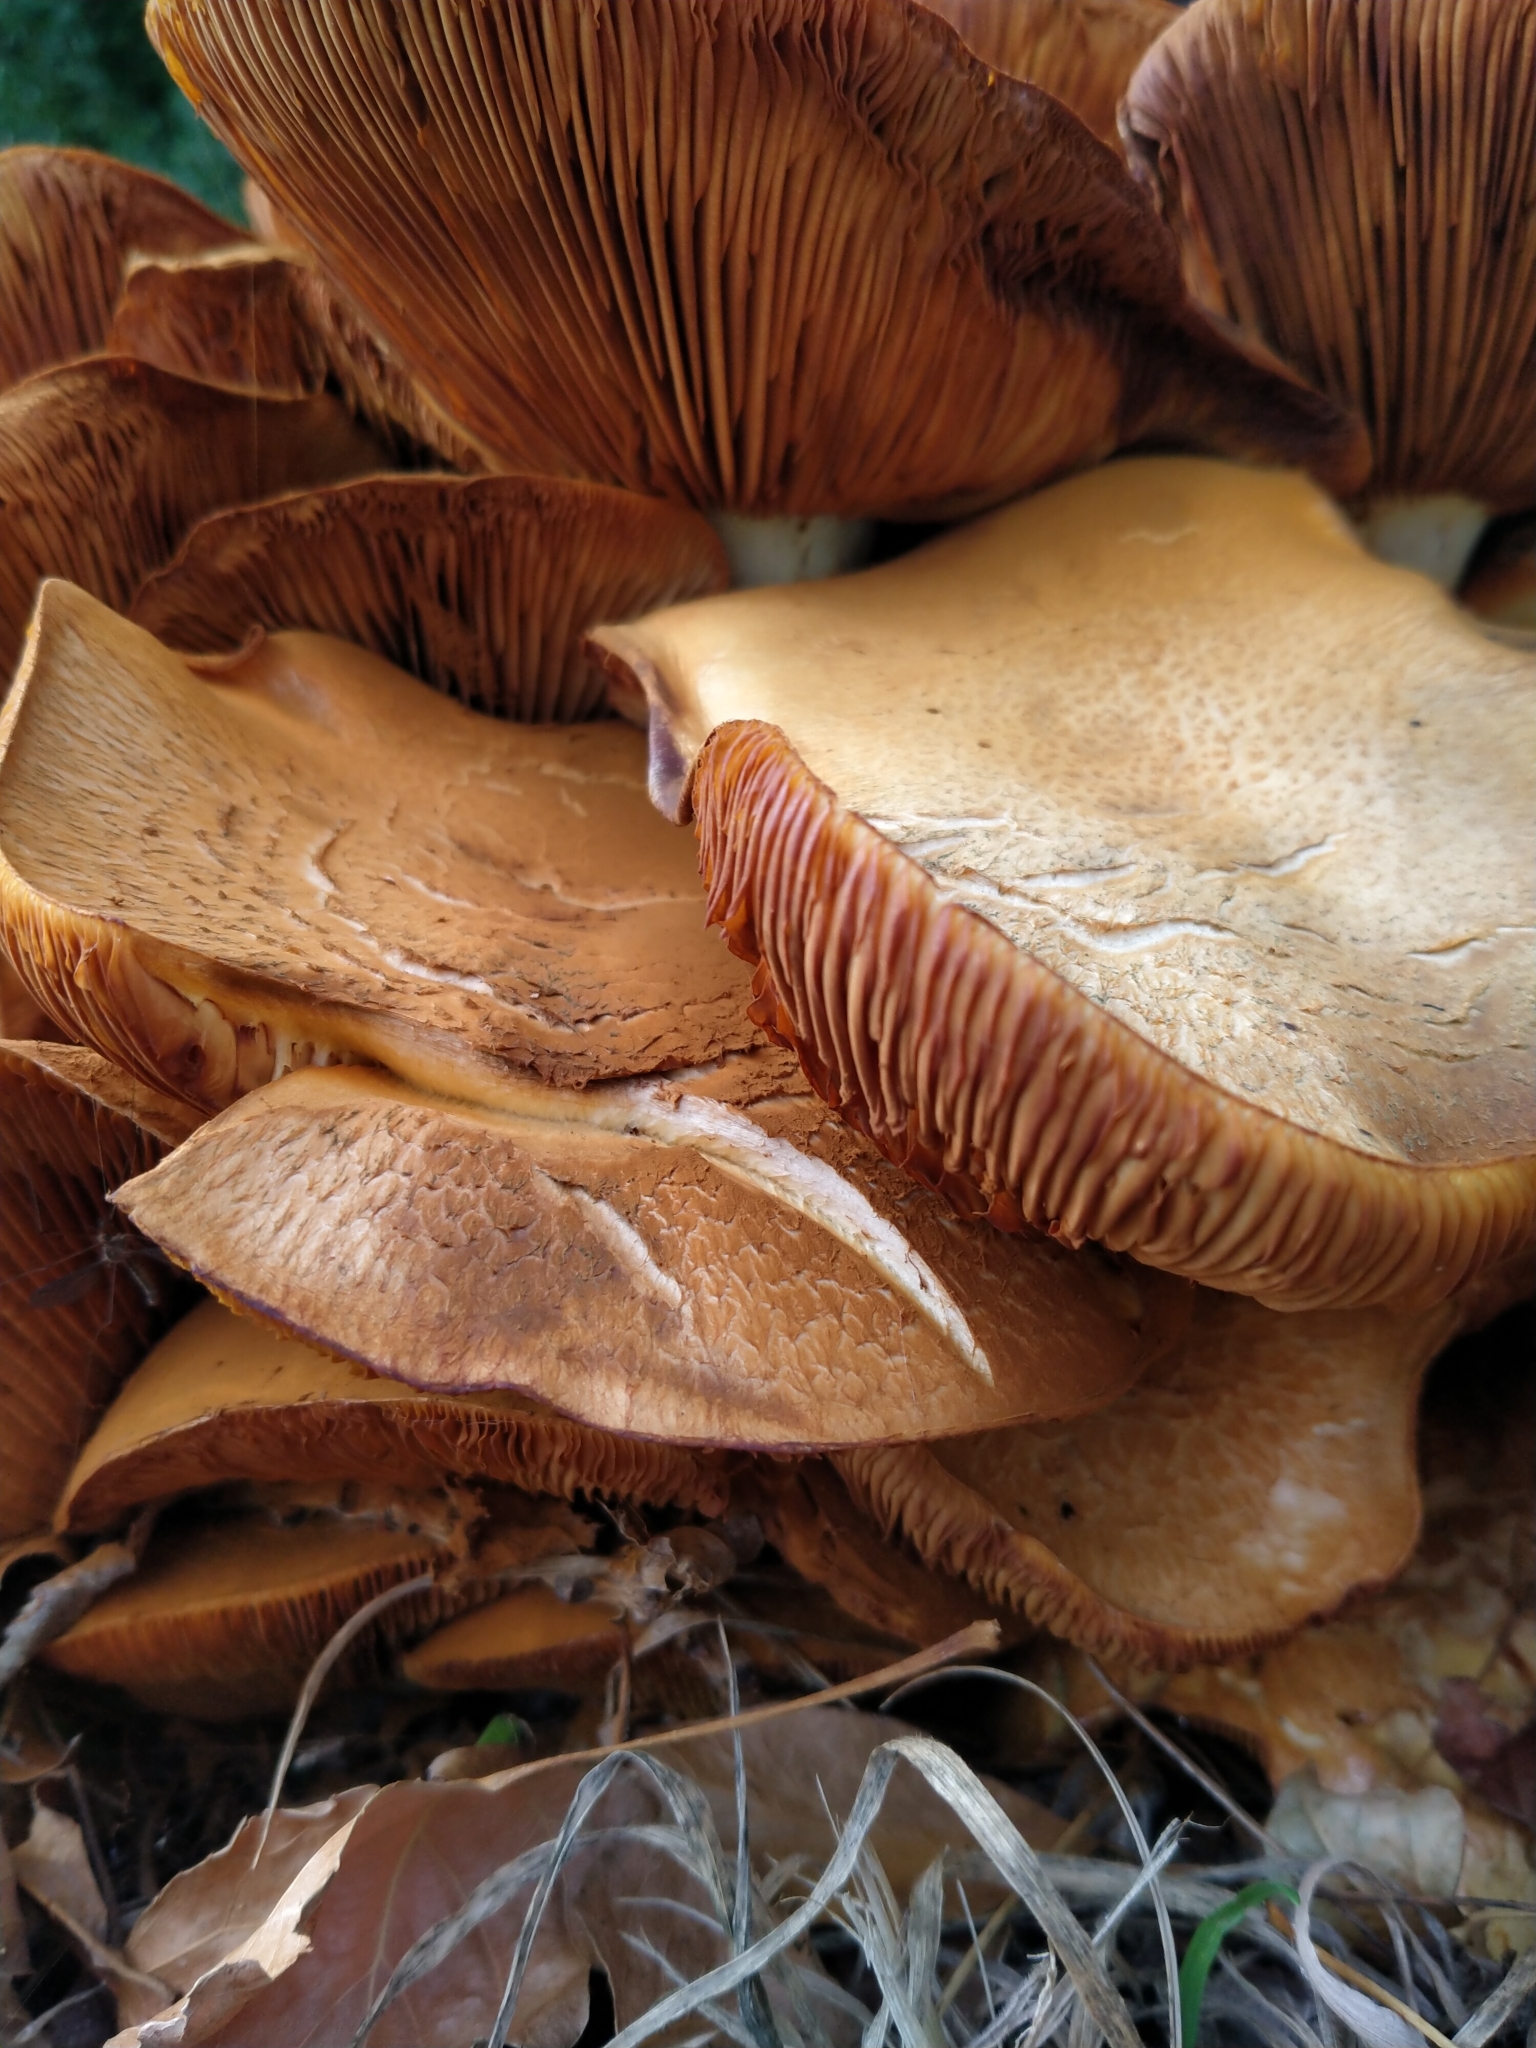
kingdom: Fungi
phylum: Basidiomycota
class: Agaricomycetes
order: Agaricales
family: Hymenogastraceae
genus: Gymnopilus
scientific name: Gymnopilus junonius
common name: Spectacular rustgill
